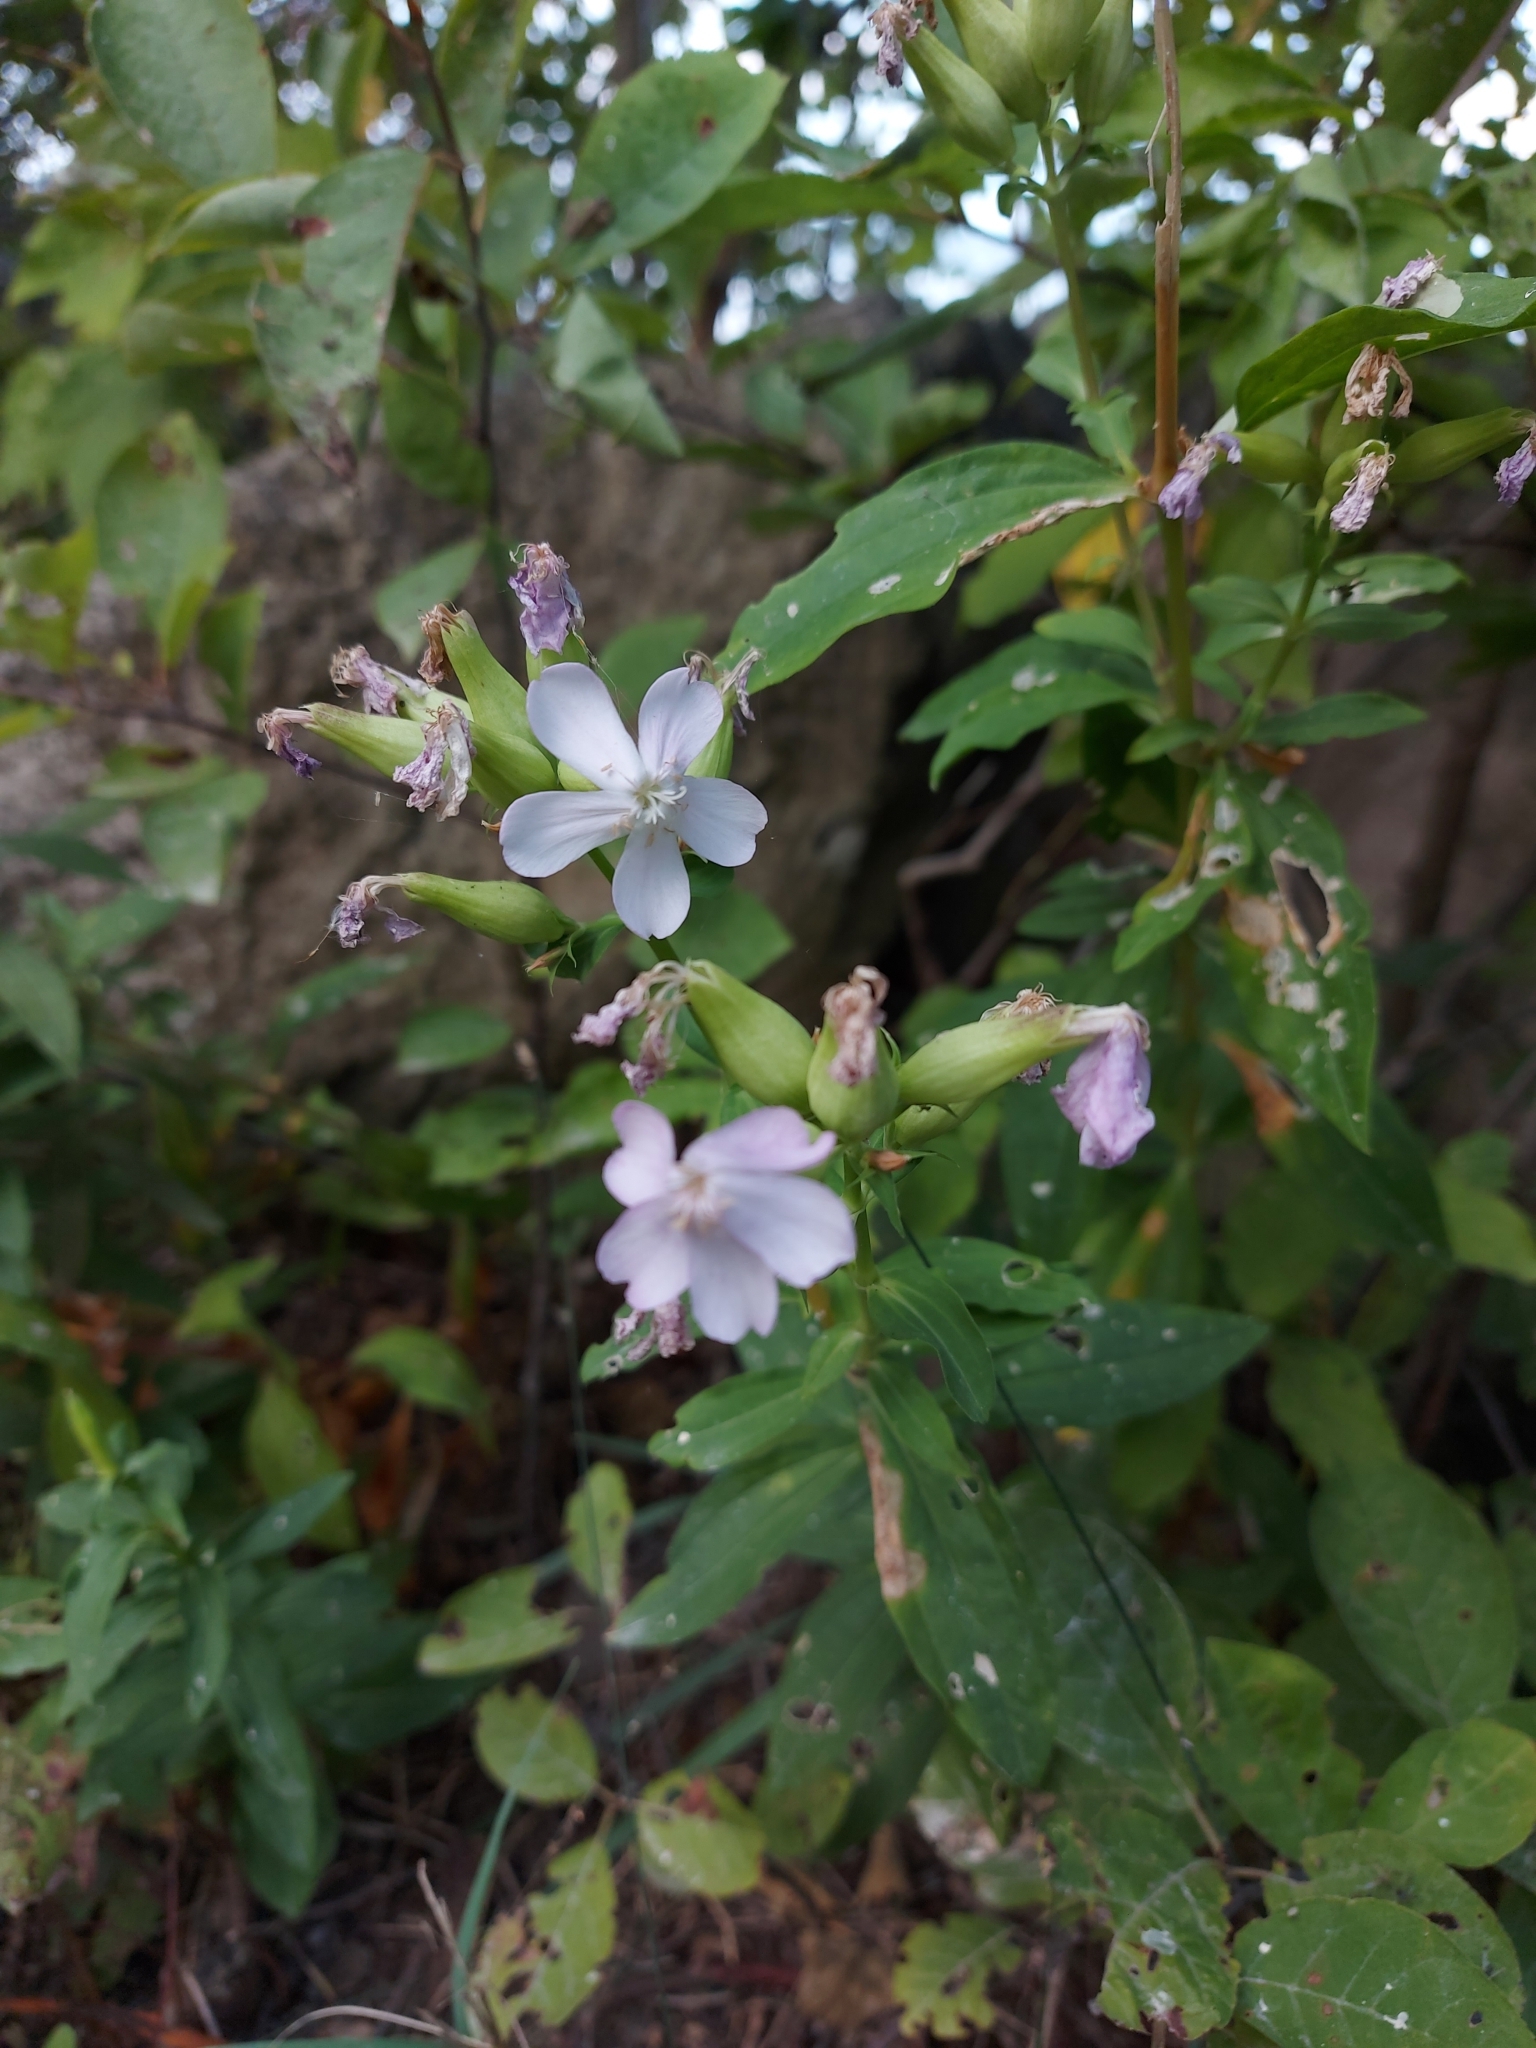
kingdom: Plantae
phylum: Tracheophyta
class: Magnoliopsida
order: Caryophyllales
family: Caryophyllaceae
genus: Saponaria
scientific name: Saponaria officinalis
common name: Soapwort
